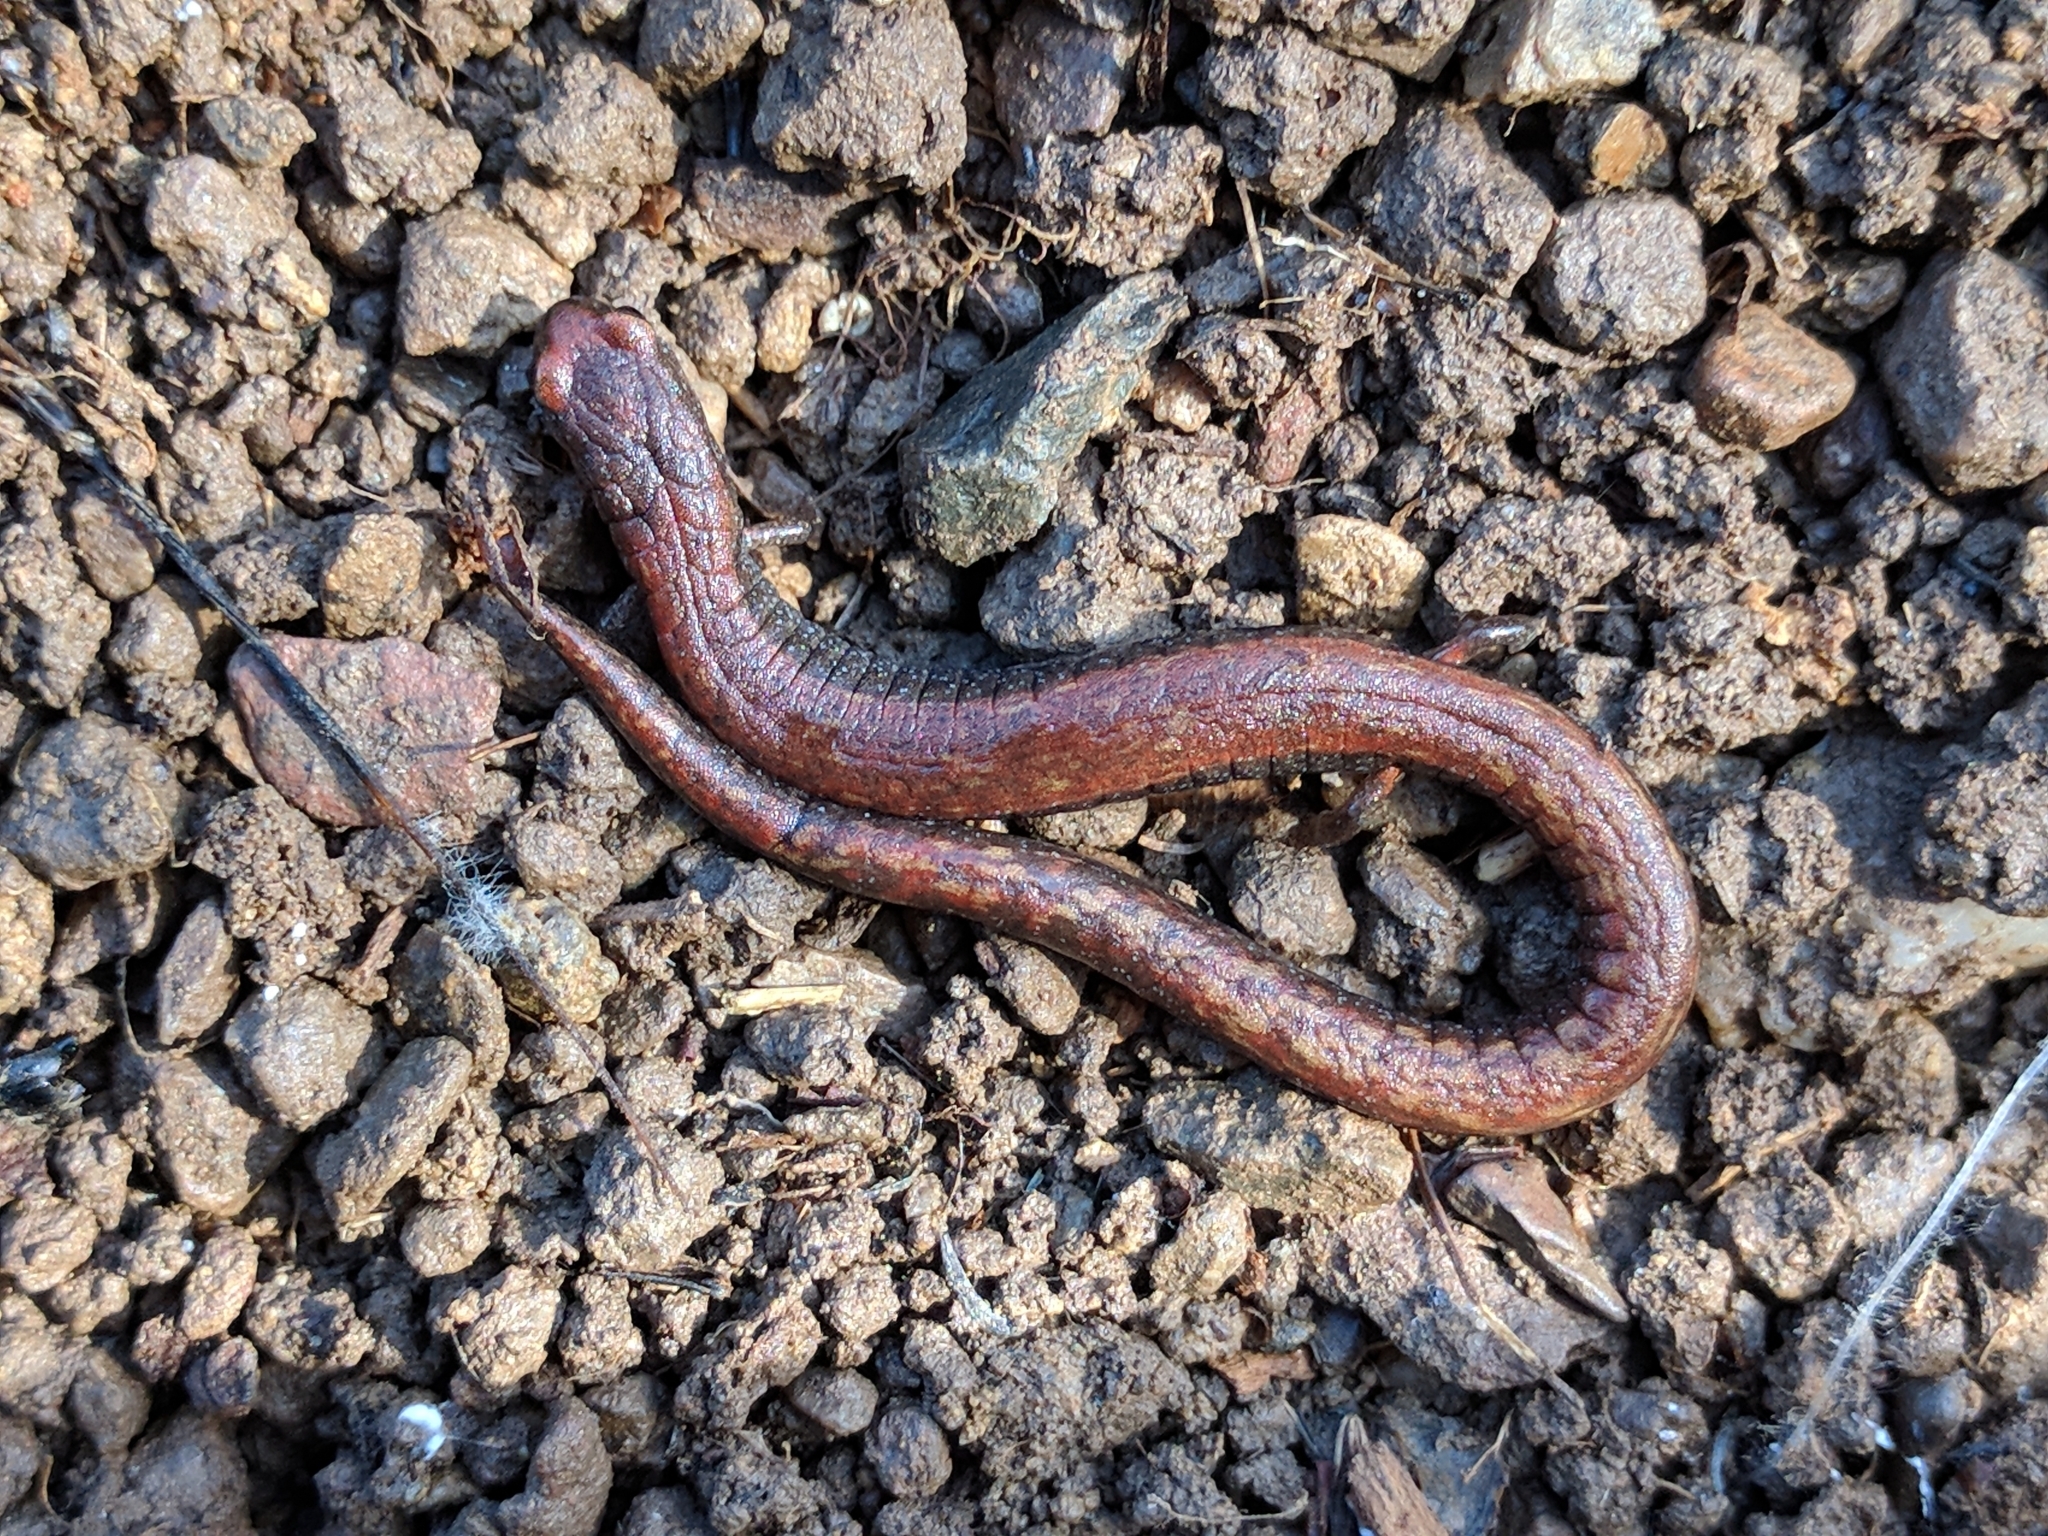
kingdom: Animalia
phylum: Chordata
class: Amphibia
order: Caudata
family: Plethodontidae
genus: Batrachoseps
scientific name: Batrachoseps attenuatus
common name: California slender salamander
